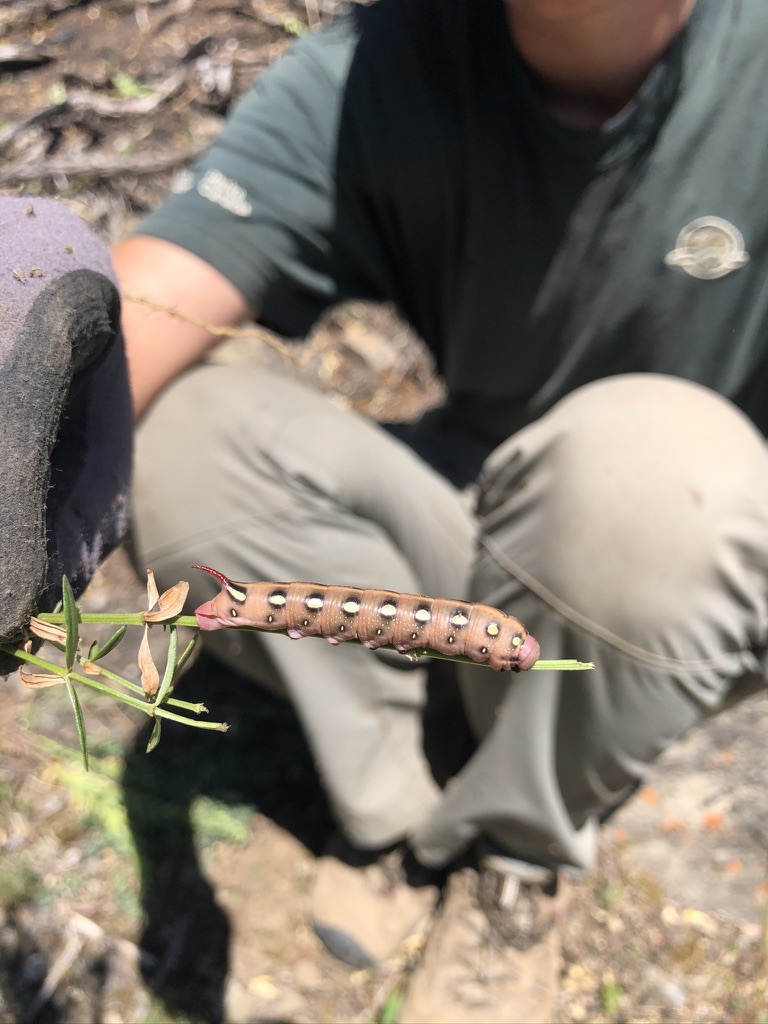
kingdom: Animalia
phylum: Arthropoda
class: Insecta
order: Lepidoptera
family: Sphingidae
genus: Hyles
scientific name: Hyles gallii
